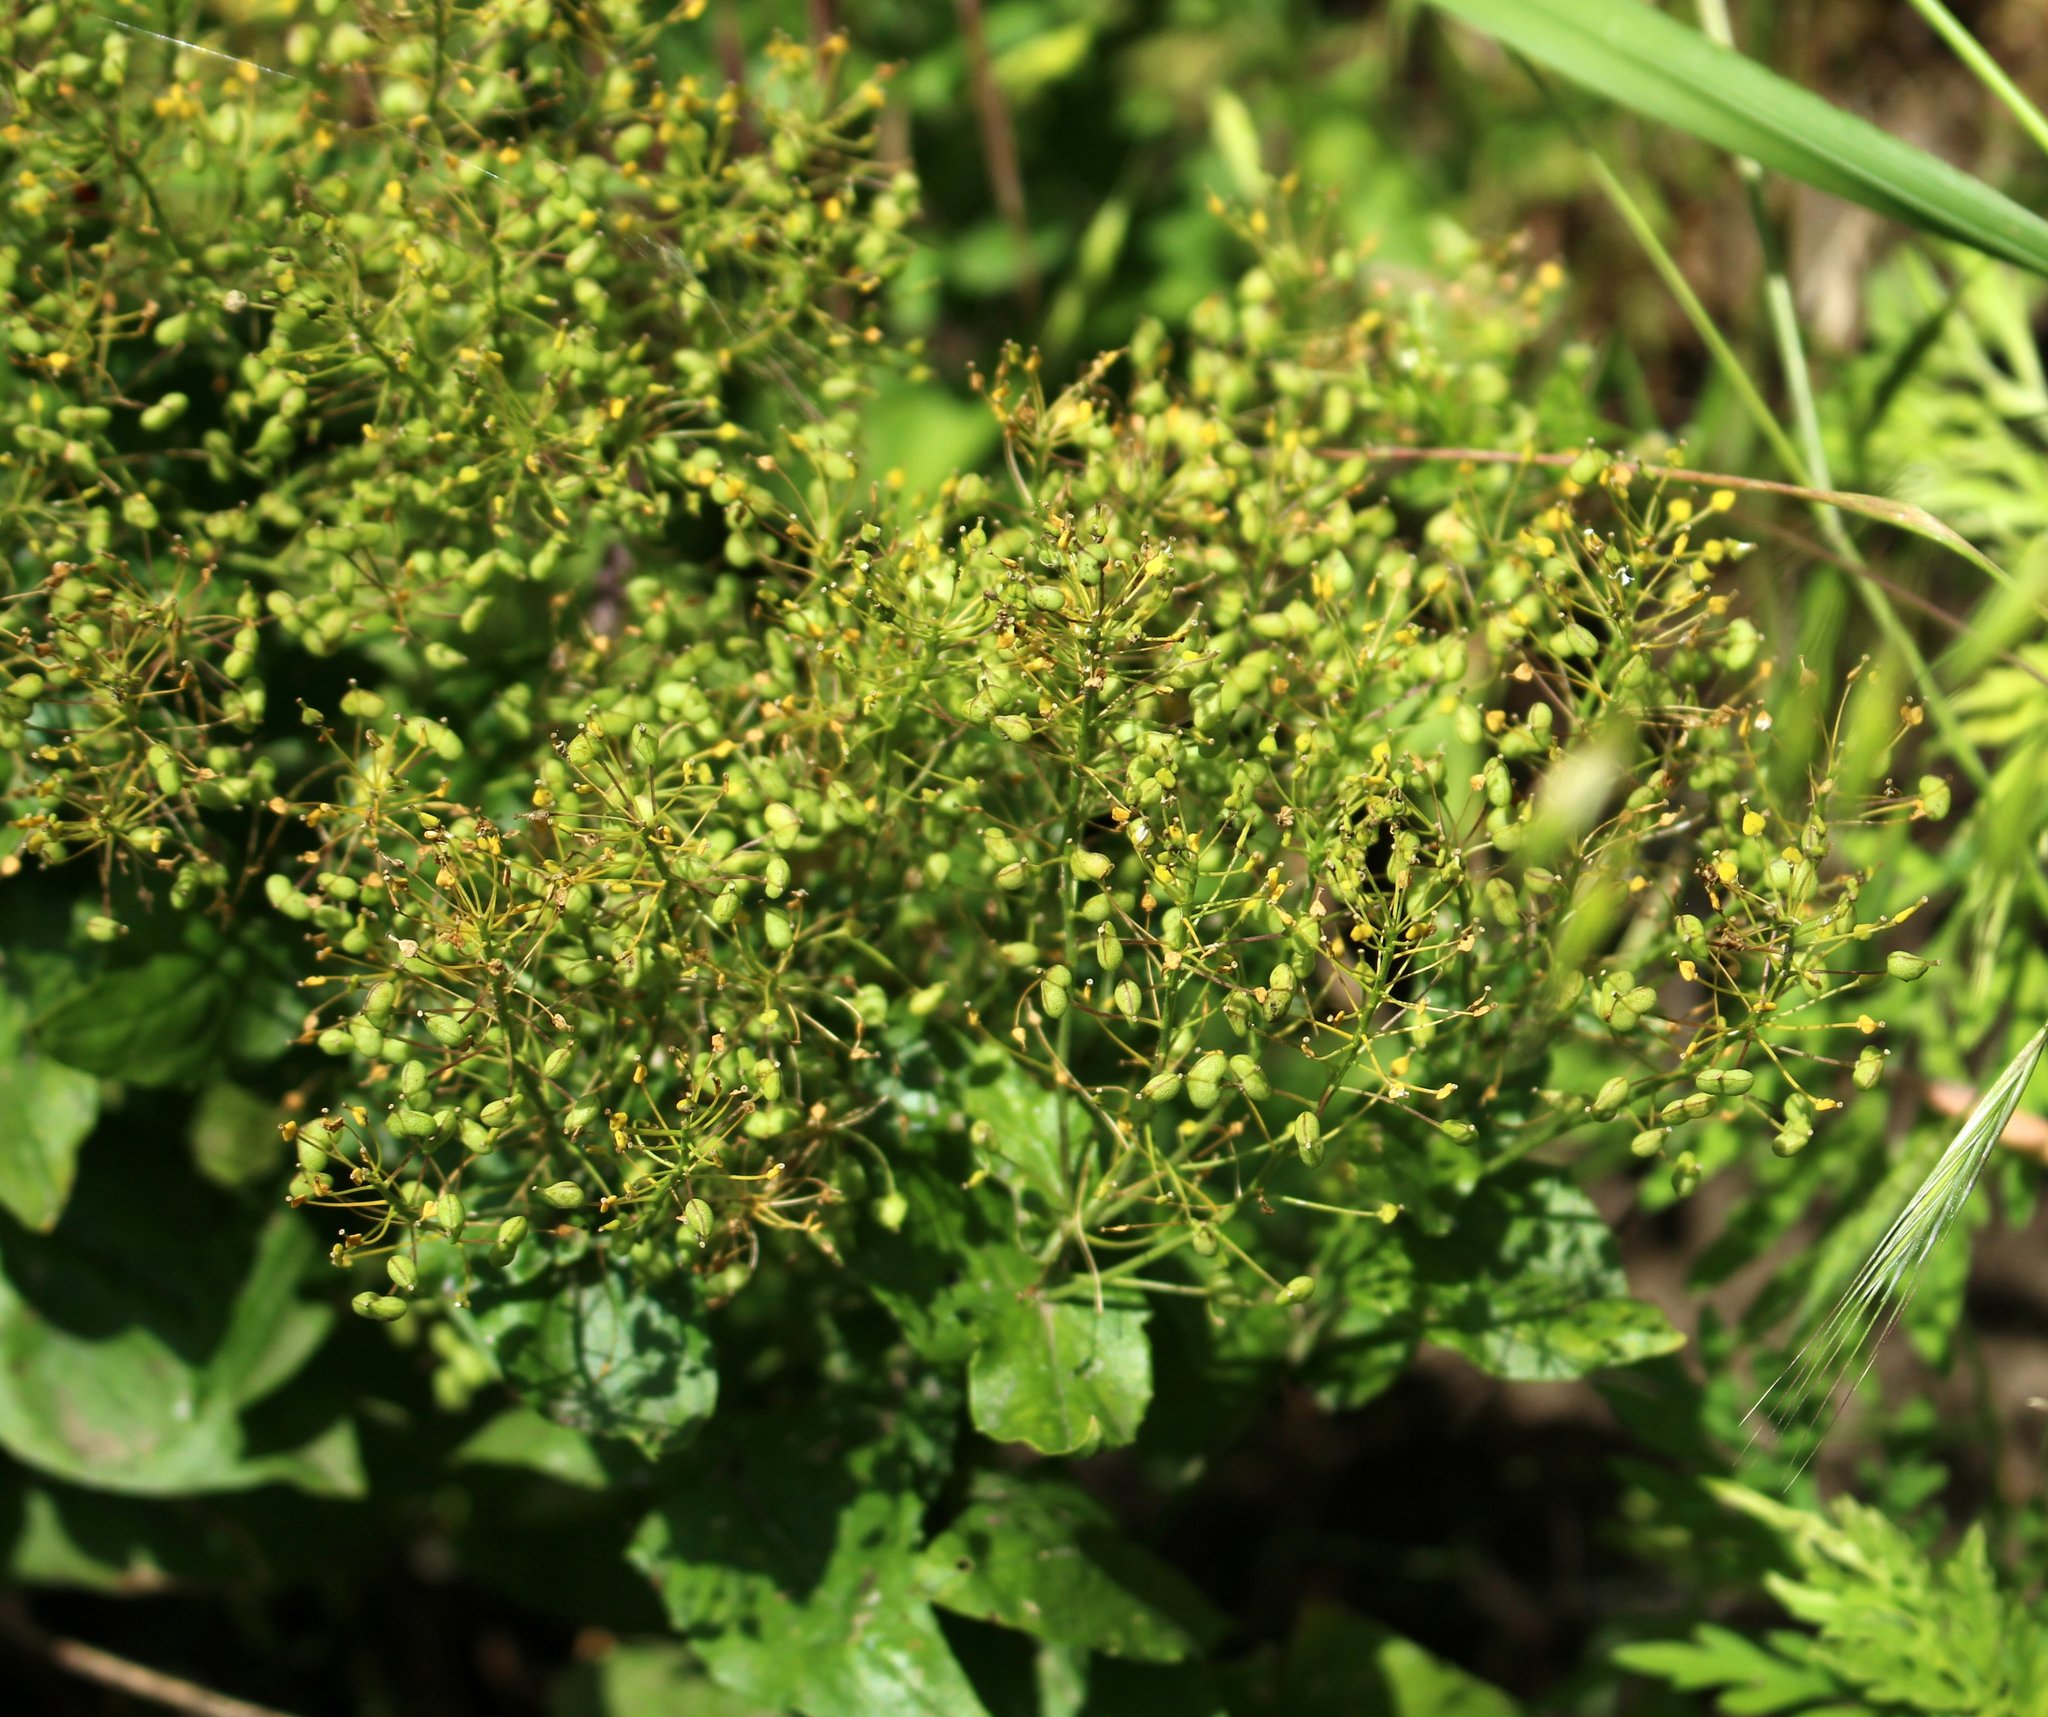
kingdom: Plantae
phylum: Tracheophyta
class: Magnoliopsida
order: Brassicales
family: Brassicaceae
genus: Lepidium
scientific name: Lepidium draba
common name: Hoary cress
